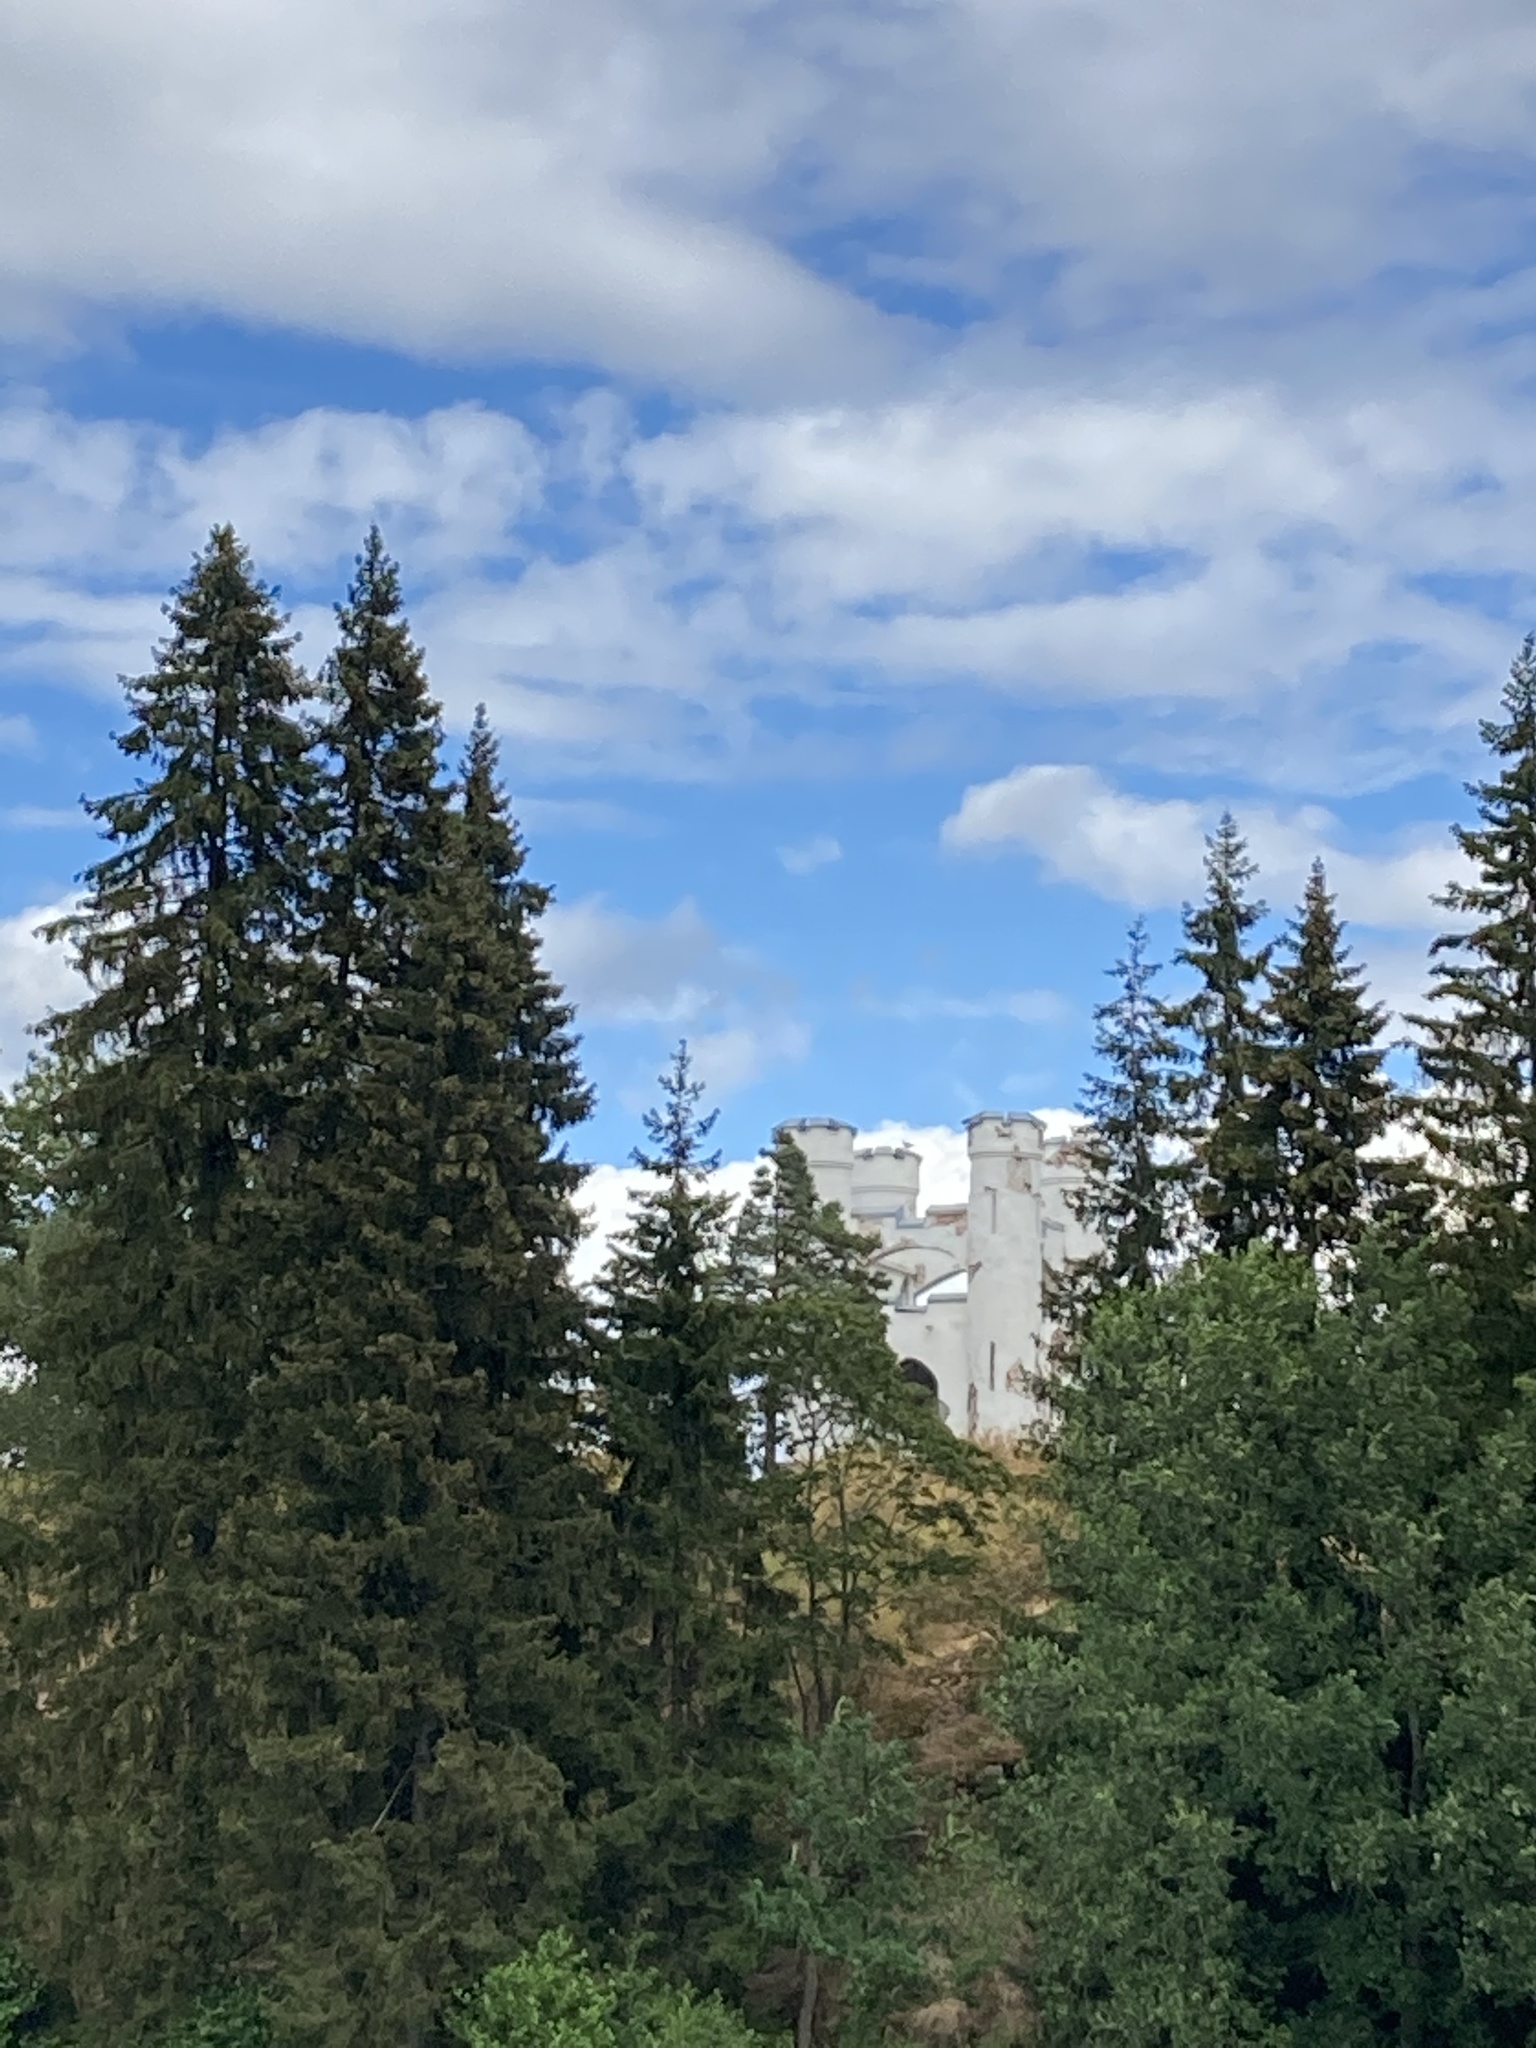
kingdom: Plantae
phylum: Tracheophyta
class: Pinopsida
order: Pinales
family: Pinaceae
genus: Picea
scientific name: Picea
